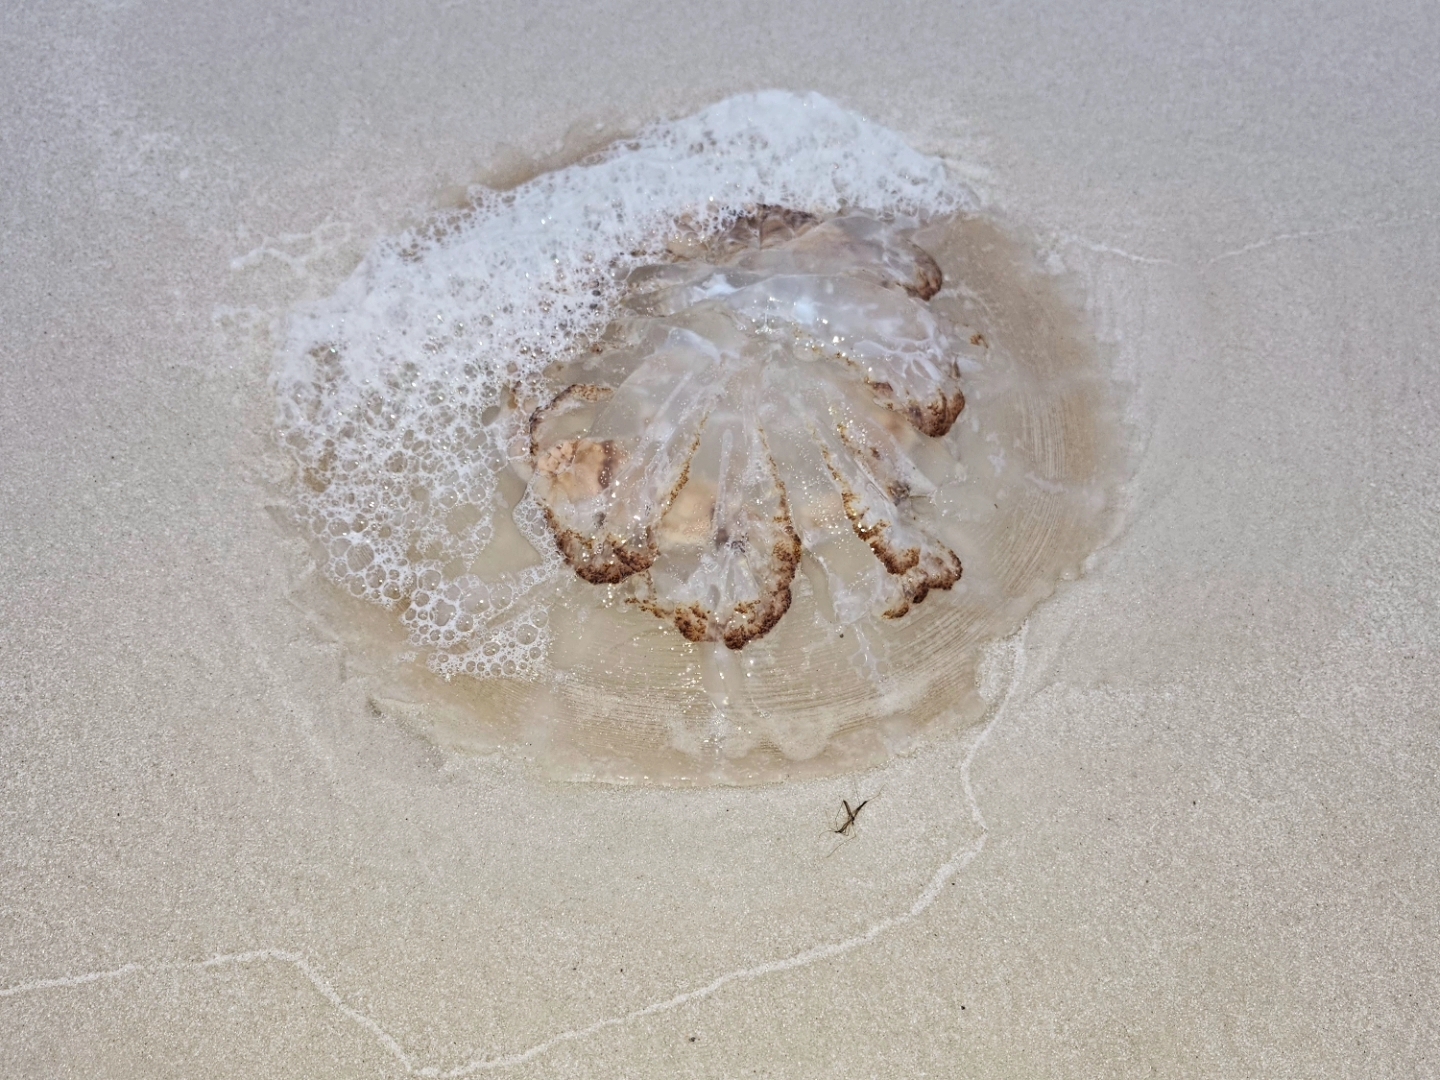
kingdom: Animalia
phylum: Cnidaria
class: Scyphozoa
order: Rhizostomeae
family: Rhizostomatidae
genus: Rhopilema
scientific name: Rhopilema verrilli
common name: Mushroom cap jellyfish
